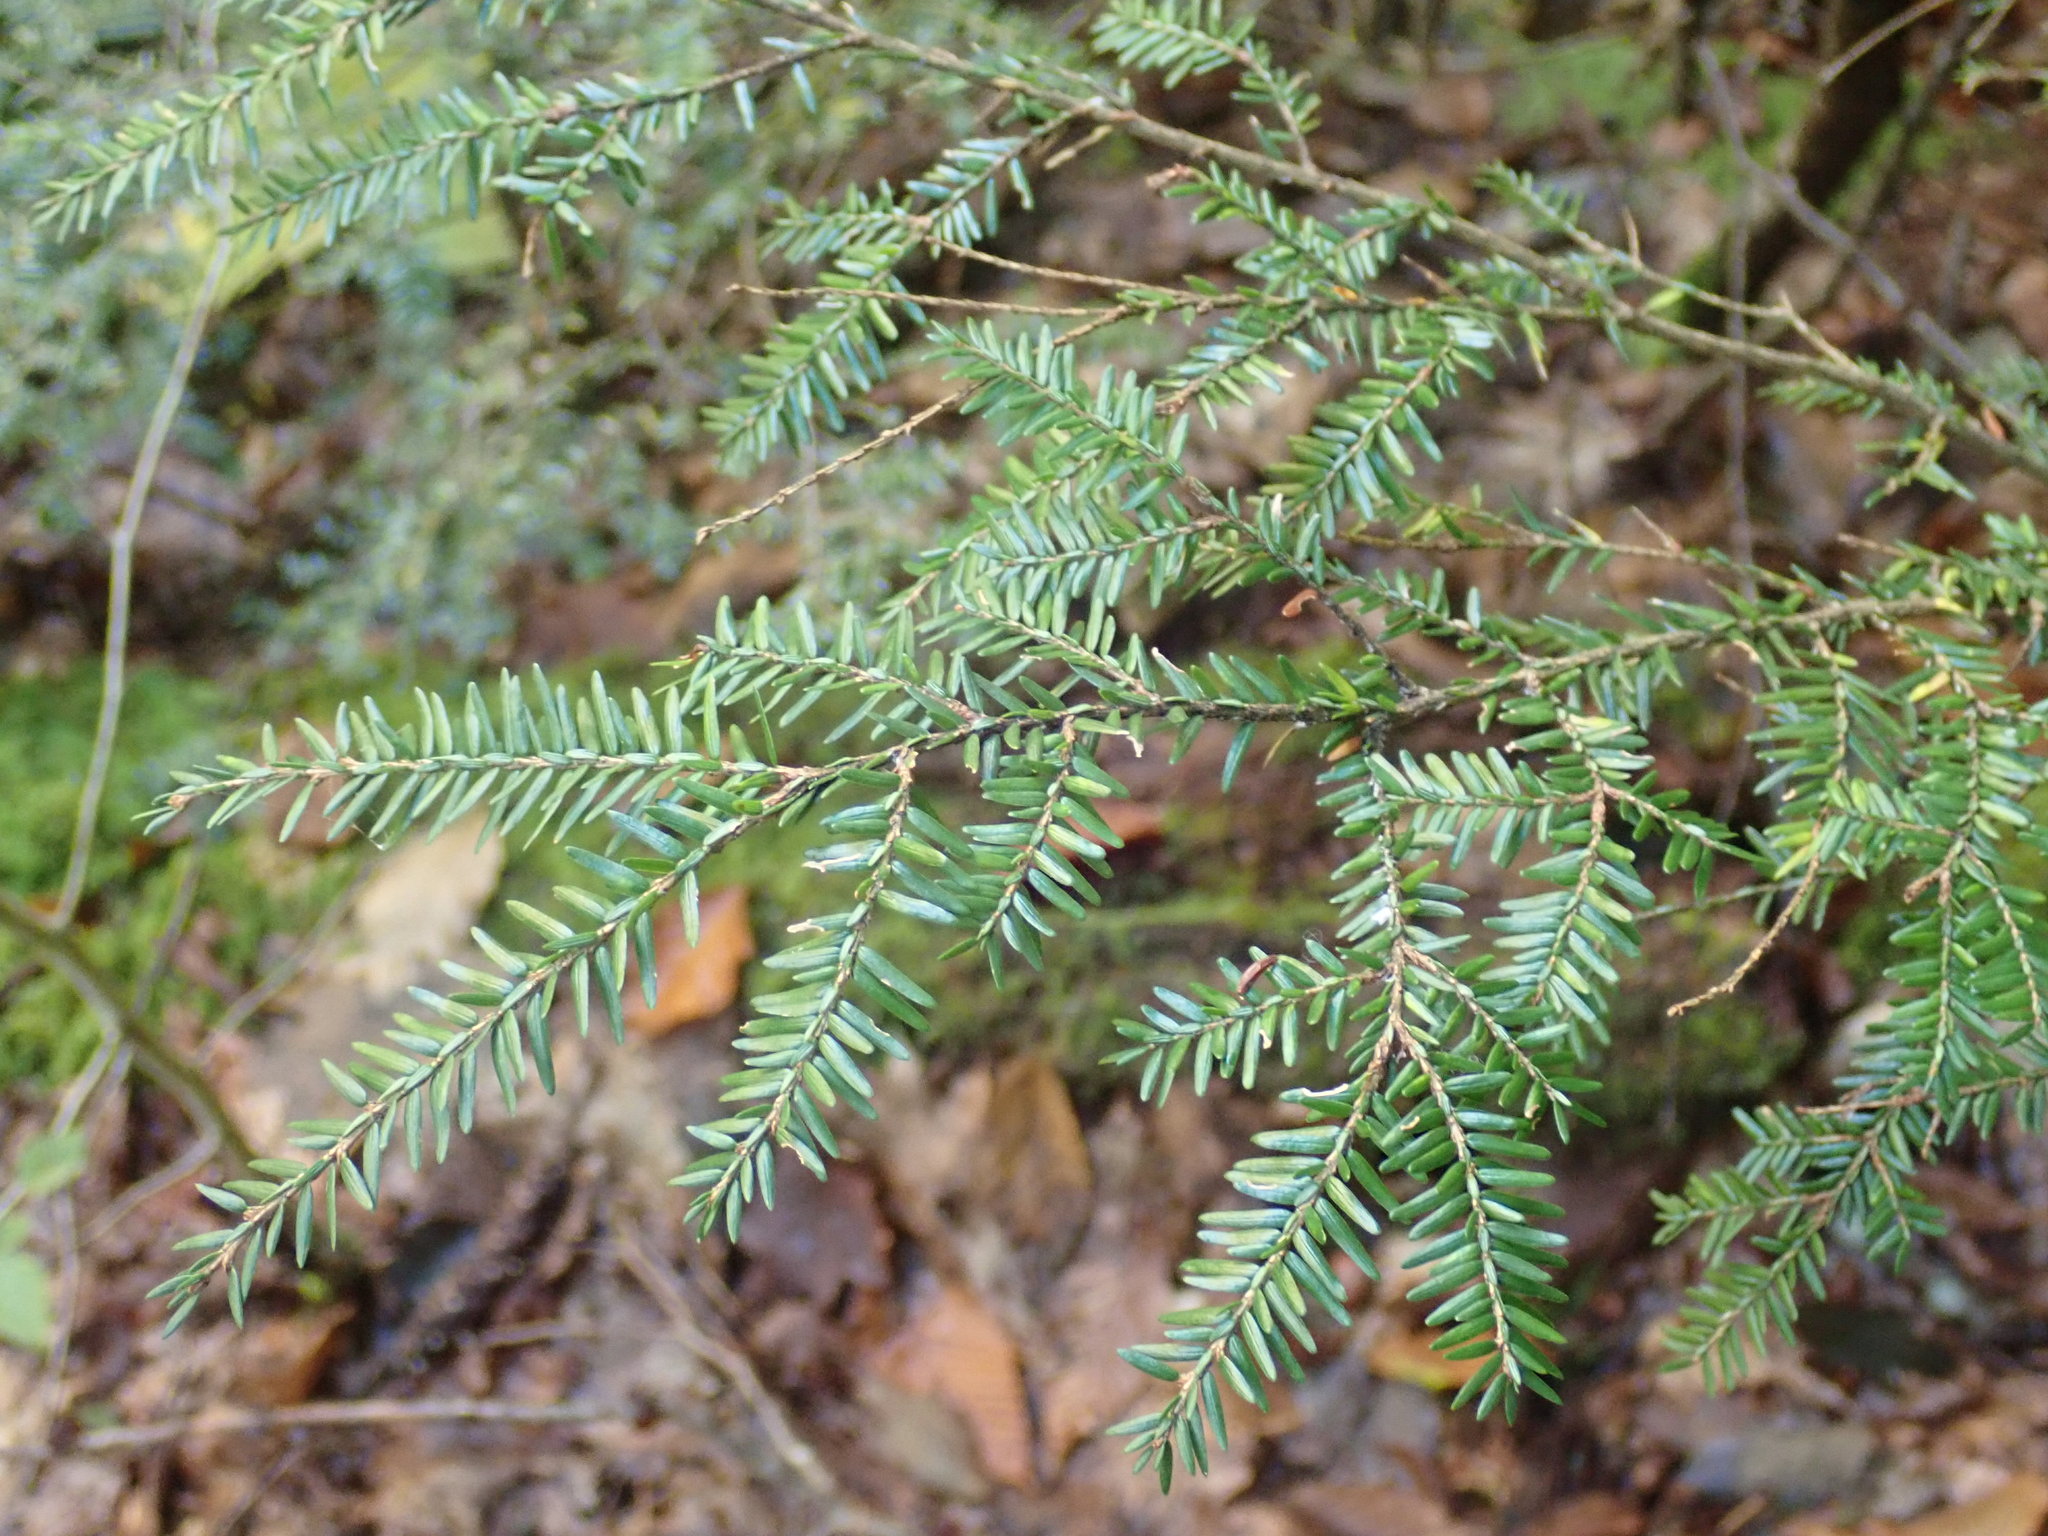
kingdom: Plantae
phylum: Tracheophyta
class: Pinopsida
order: Pinales
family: Pinaceae
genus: Tsuga
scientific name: Tsuga canadensis
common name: Eastern hemlock
